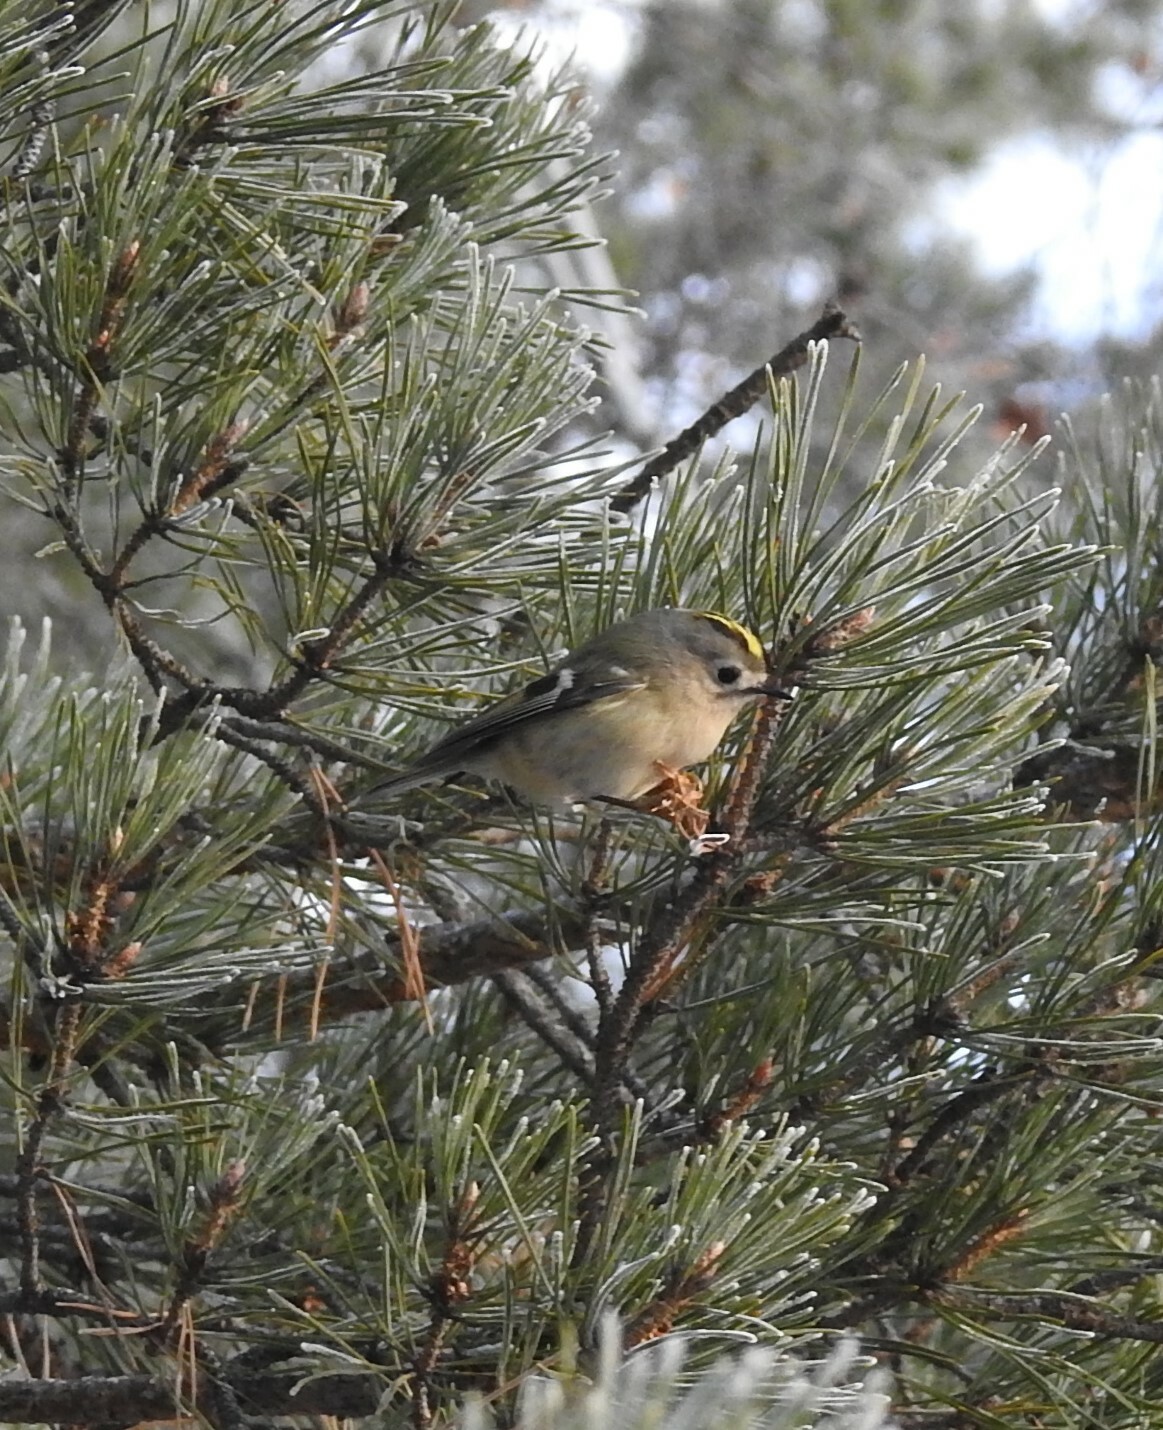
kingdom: Animalia
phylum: Chordata
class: Aves
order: Passeriformes
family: Regulidae
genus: Regulus
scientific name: Regulus regulus
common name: Goldcrest
